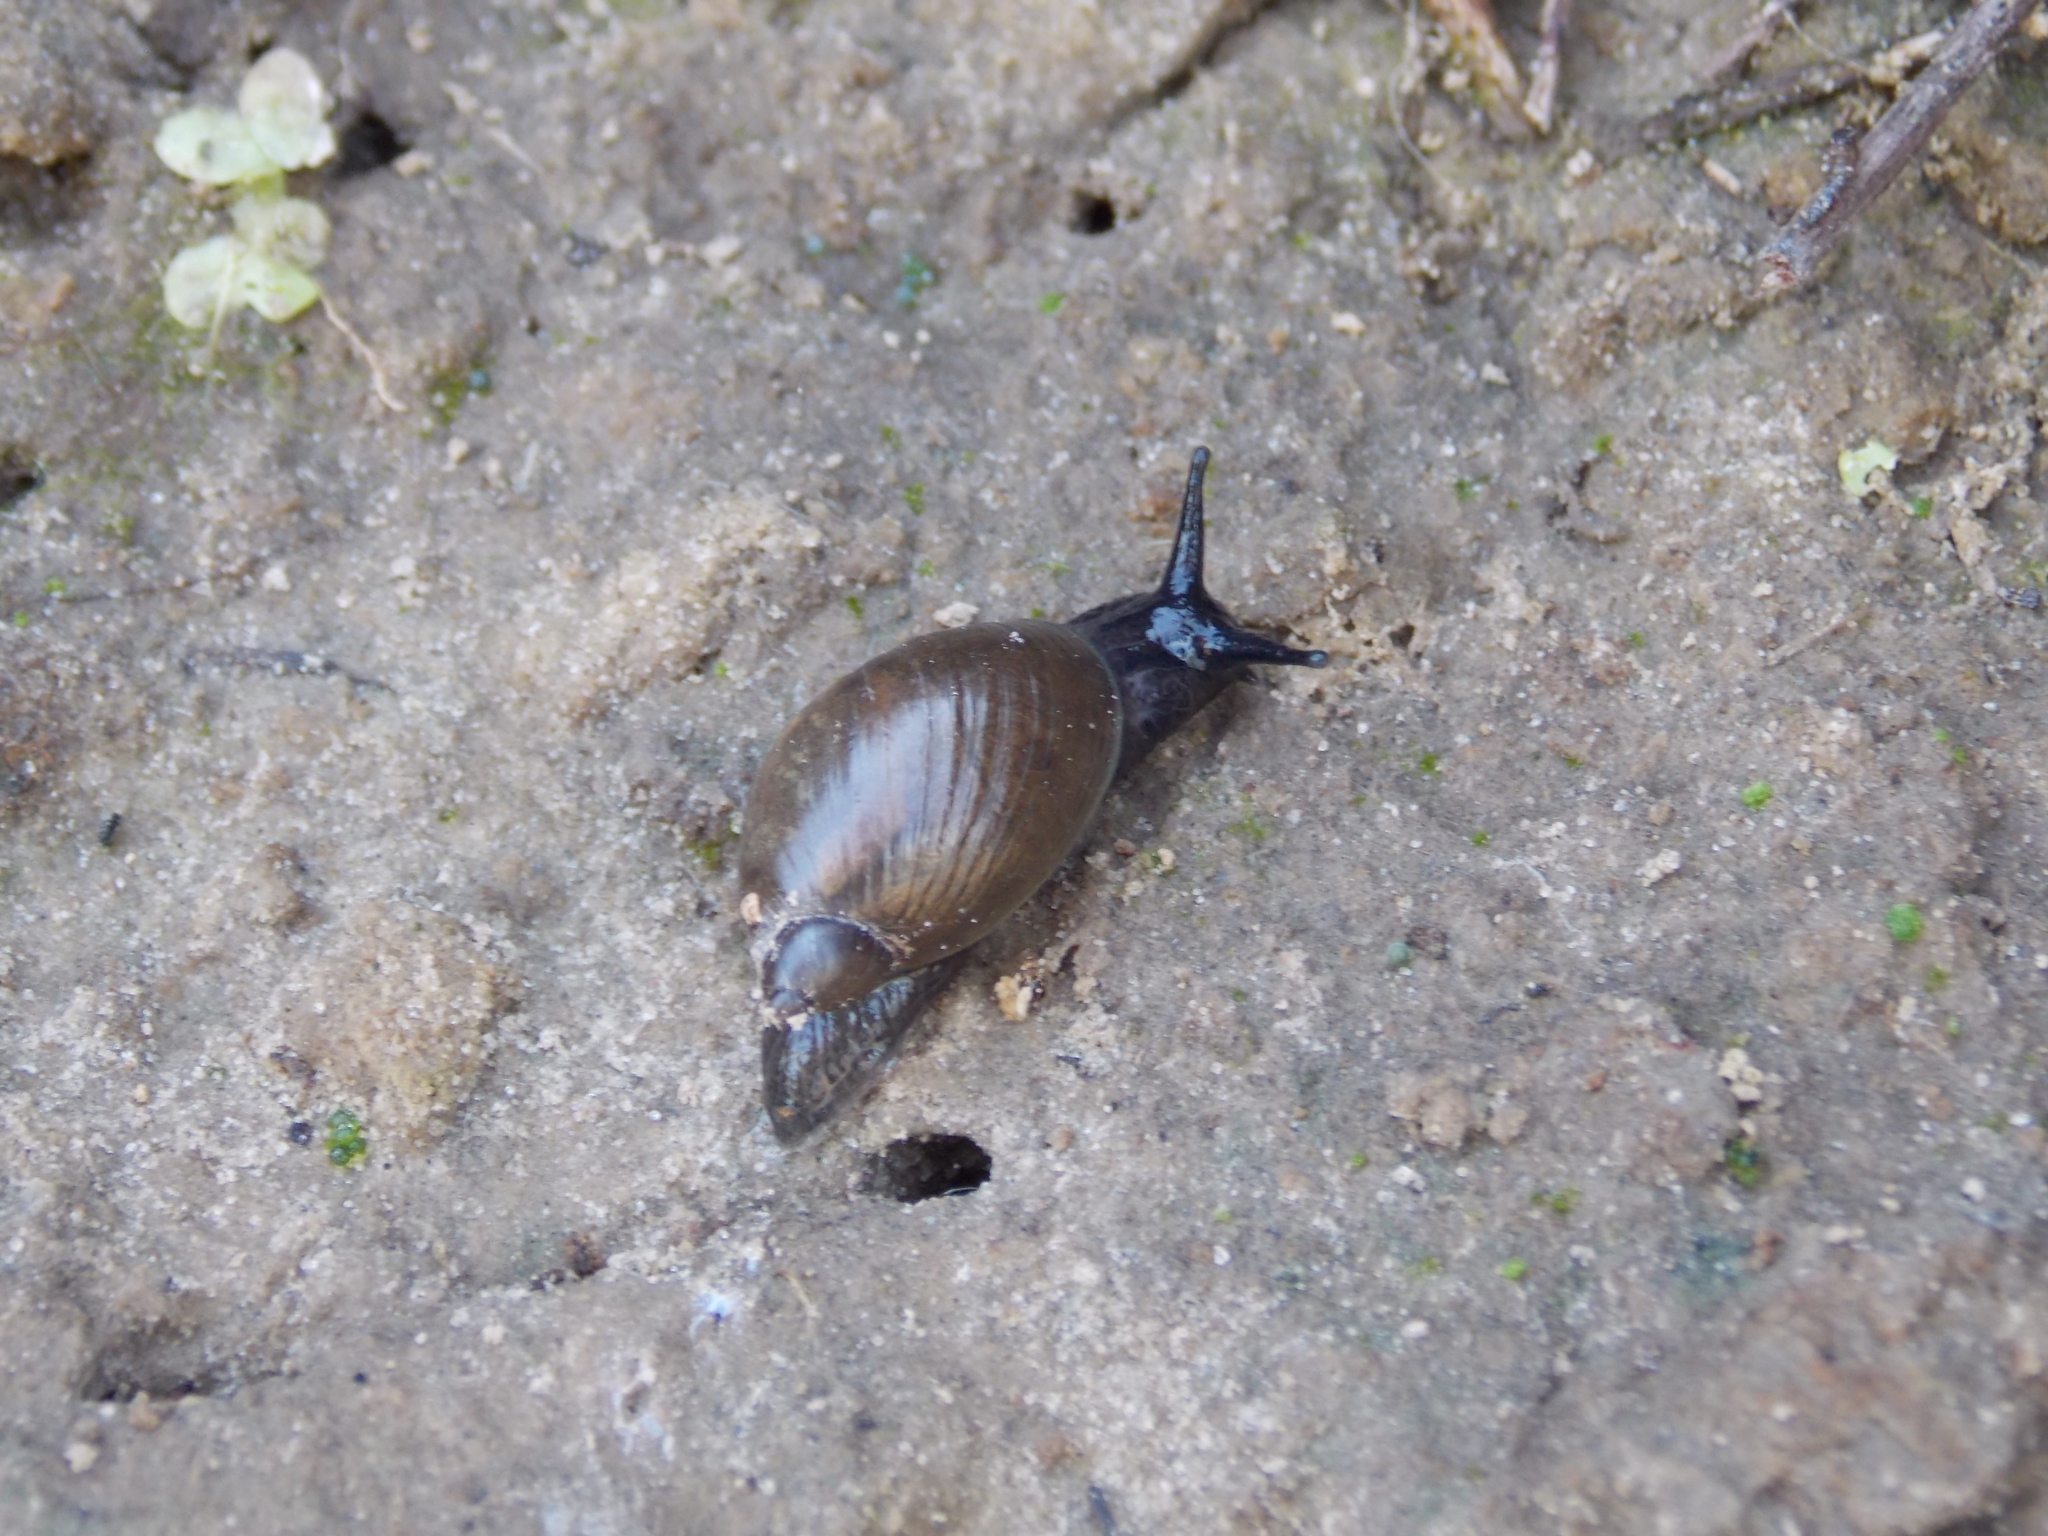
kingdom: Animalia
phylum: Mollusca
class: Gastropoda
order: Stylommatophora
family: Succineidae
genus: Succinea
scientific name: Succinea putris
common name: European ambersnail
